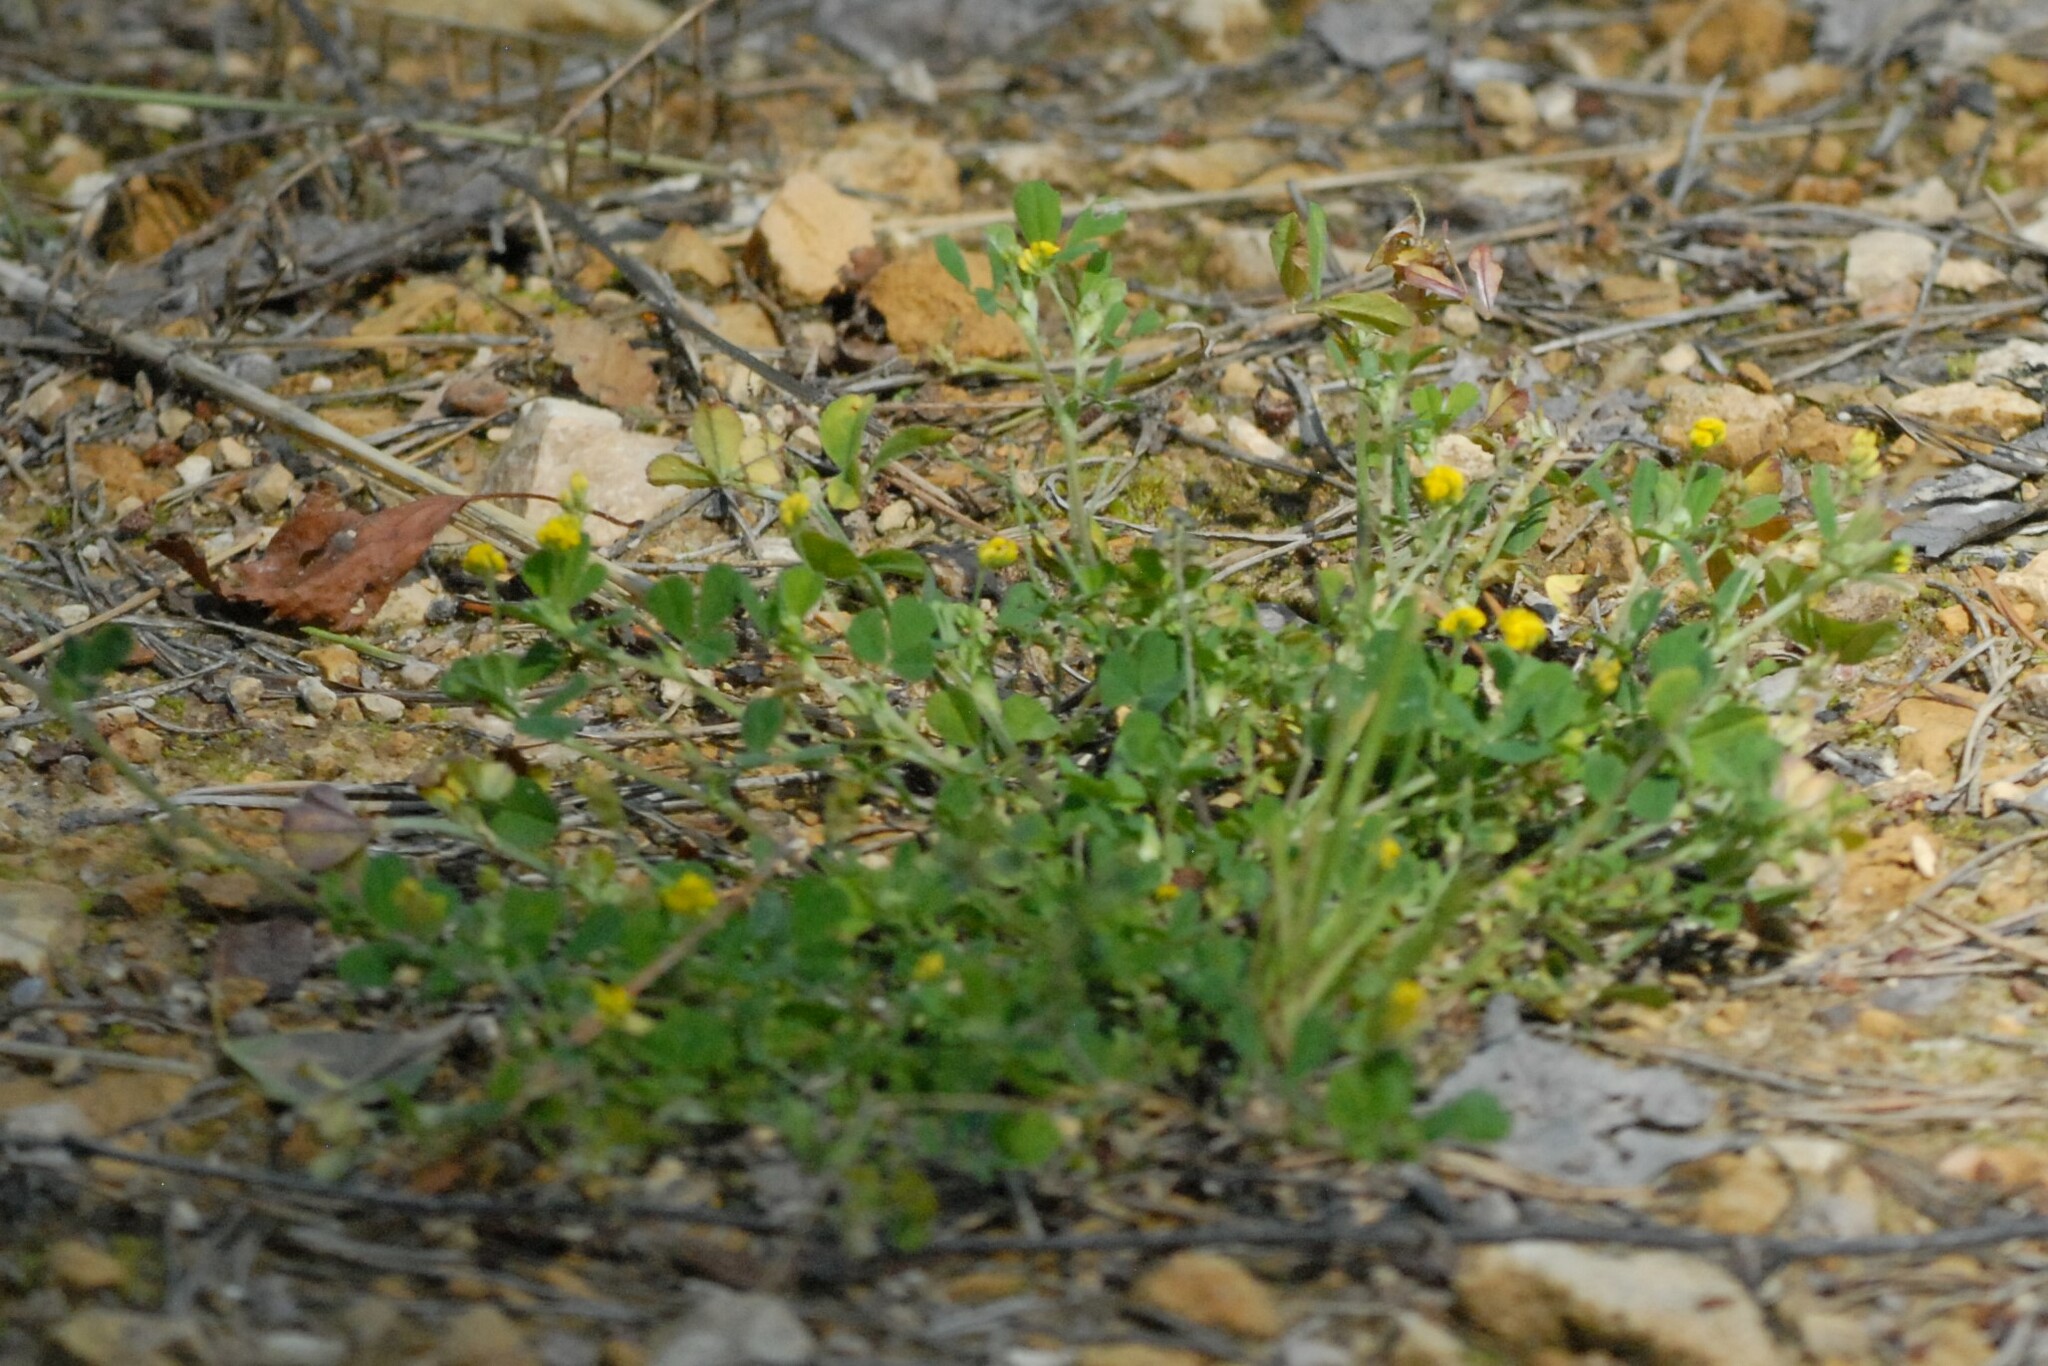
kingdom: Plantae
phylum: Tracheophyta
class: Magnoliopsida
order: Fabales
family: Fabaceae
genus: Medicago
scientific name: Medicago lupulina
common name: Black medick
